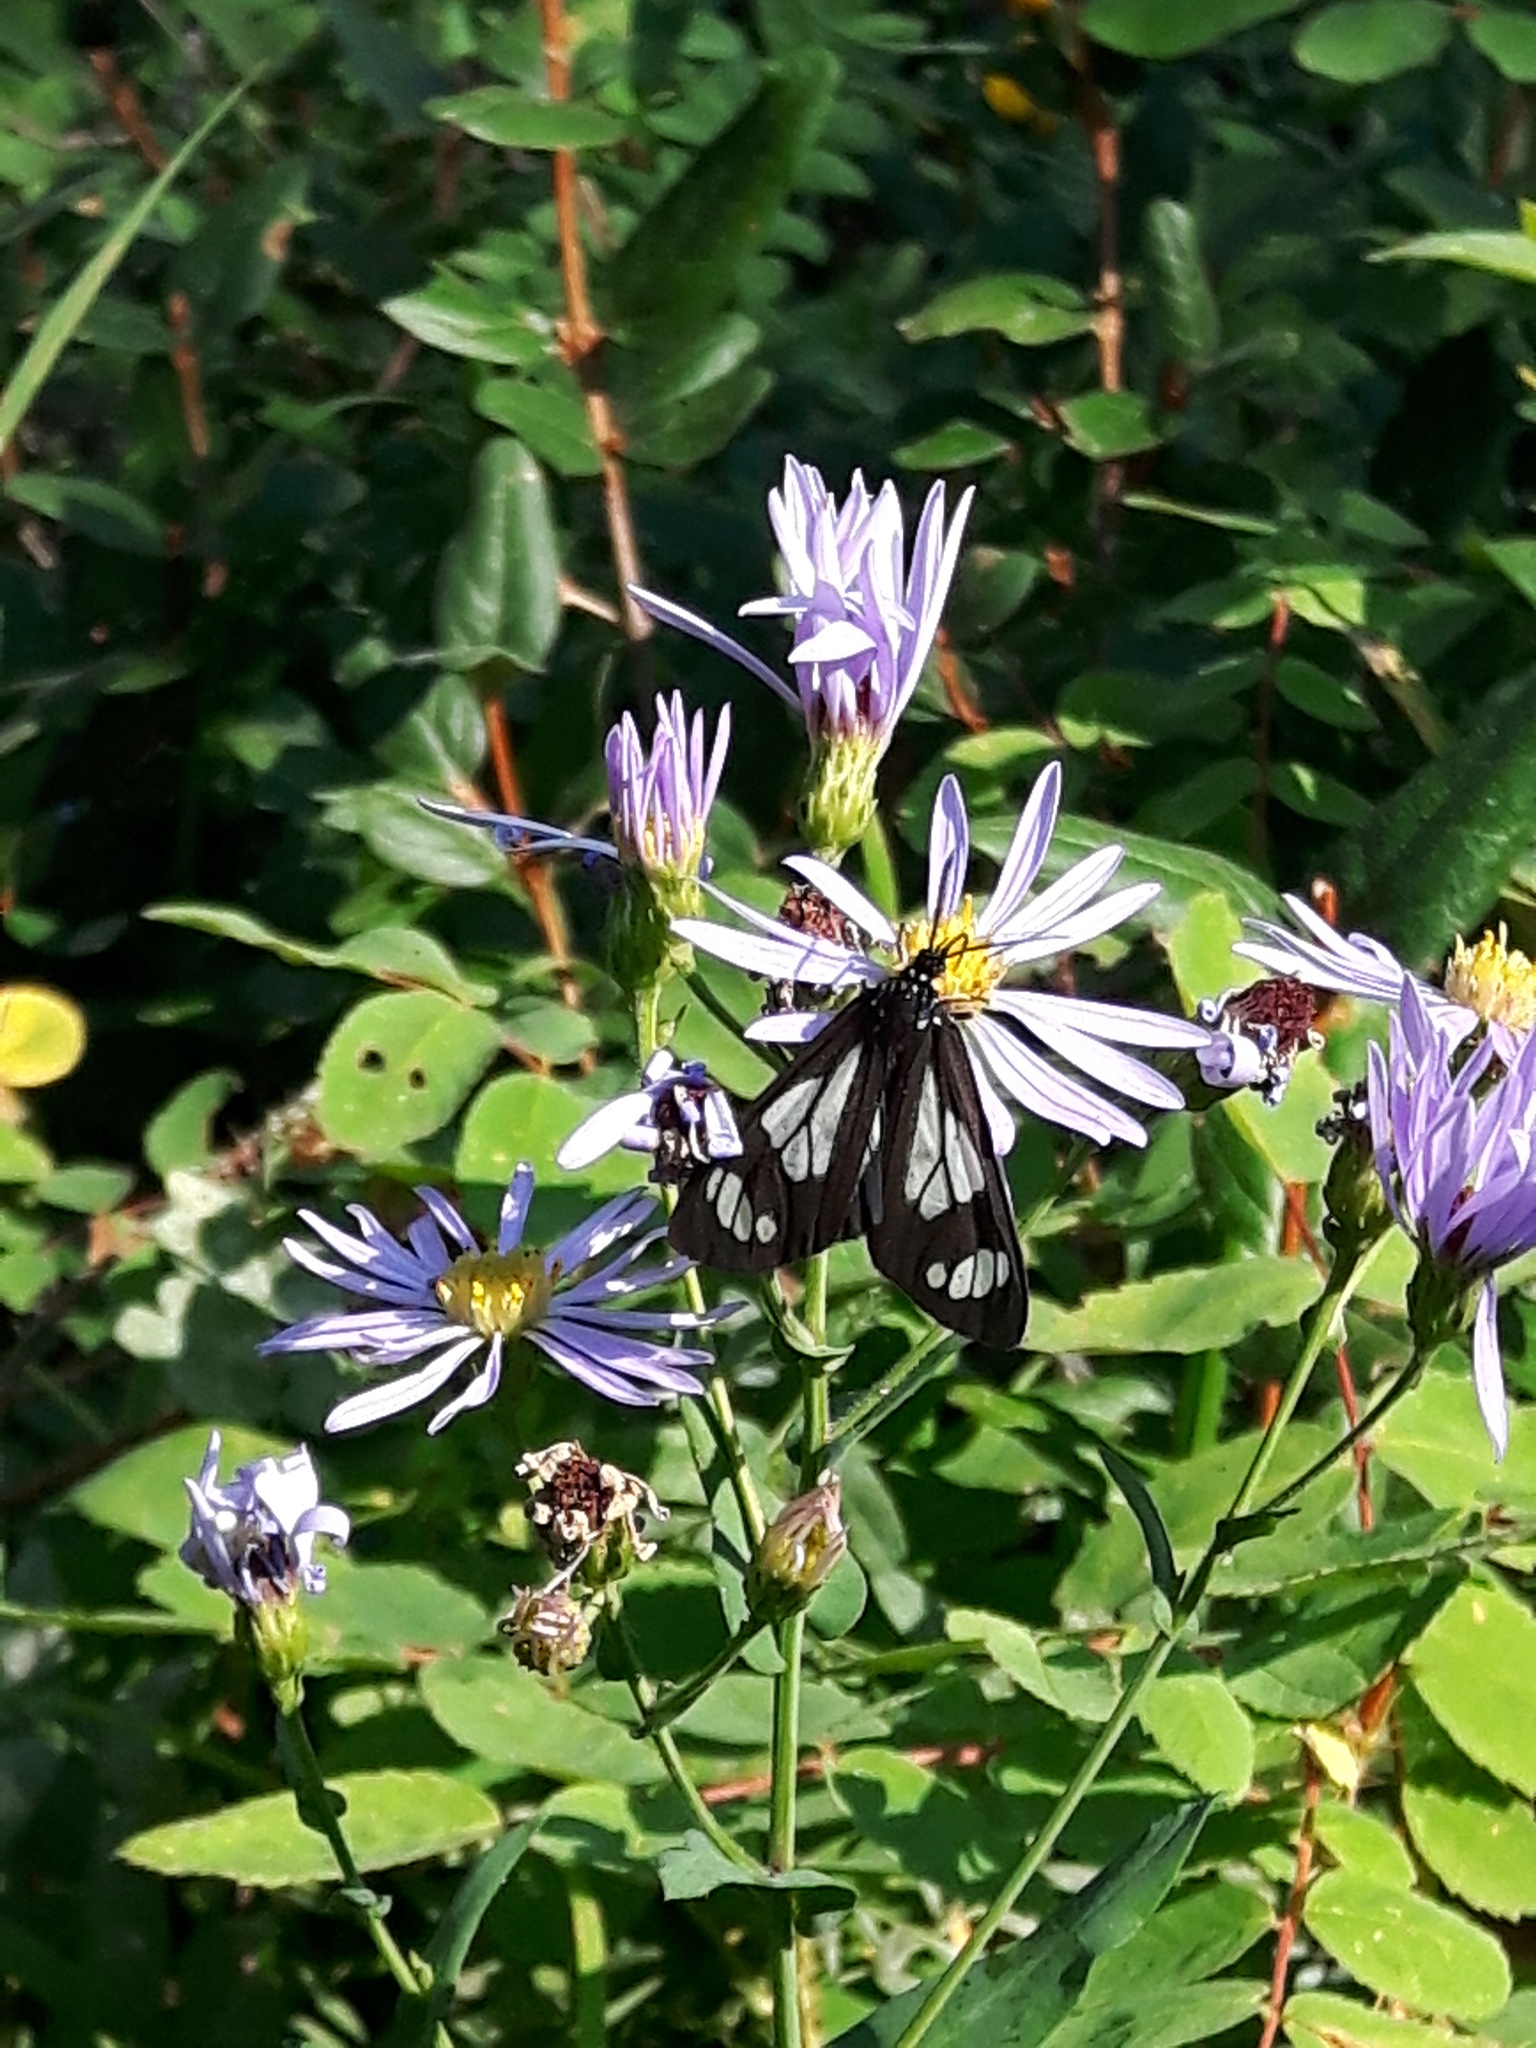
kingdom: Animalia
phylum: Arthropoda
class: Insecta
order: Lepidoptera
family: Erebidae
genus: Gnophaela
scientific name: Gnophaela vermiculata
